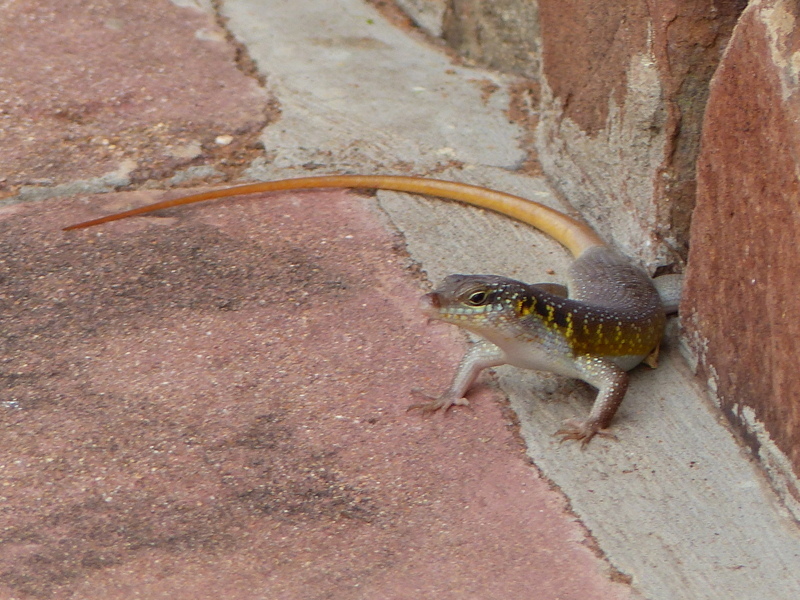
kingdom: Animalia
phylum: Chordata
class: Squamata
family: Scincidae
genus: Trachylepis
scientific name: Trachylepis margaritifera
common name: Rainbow skink
